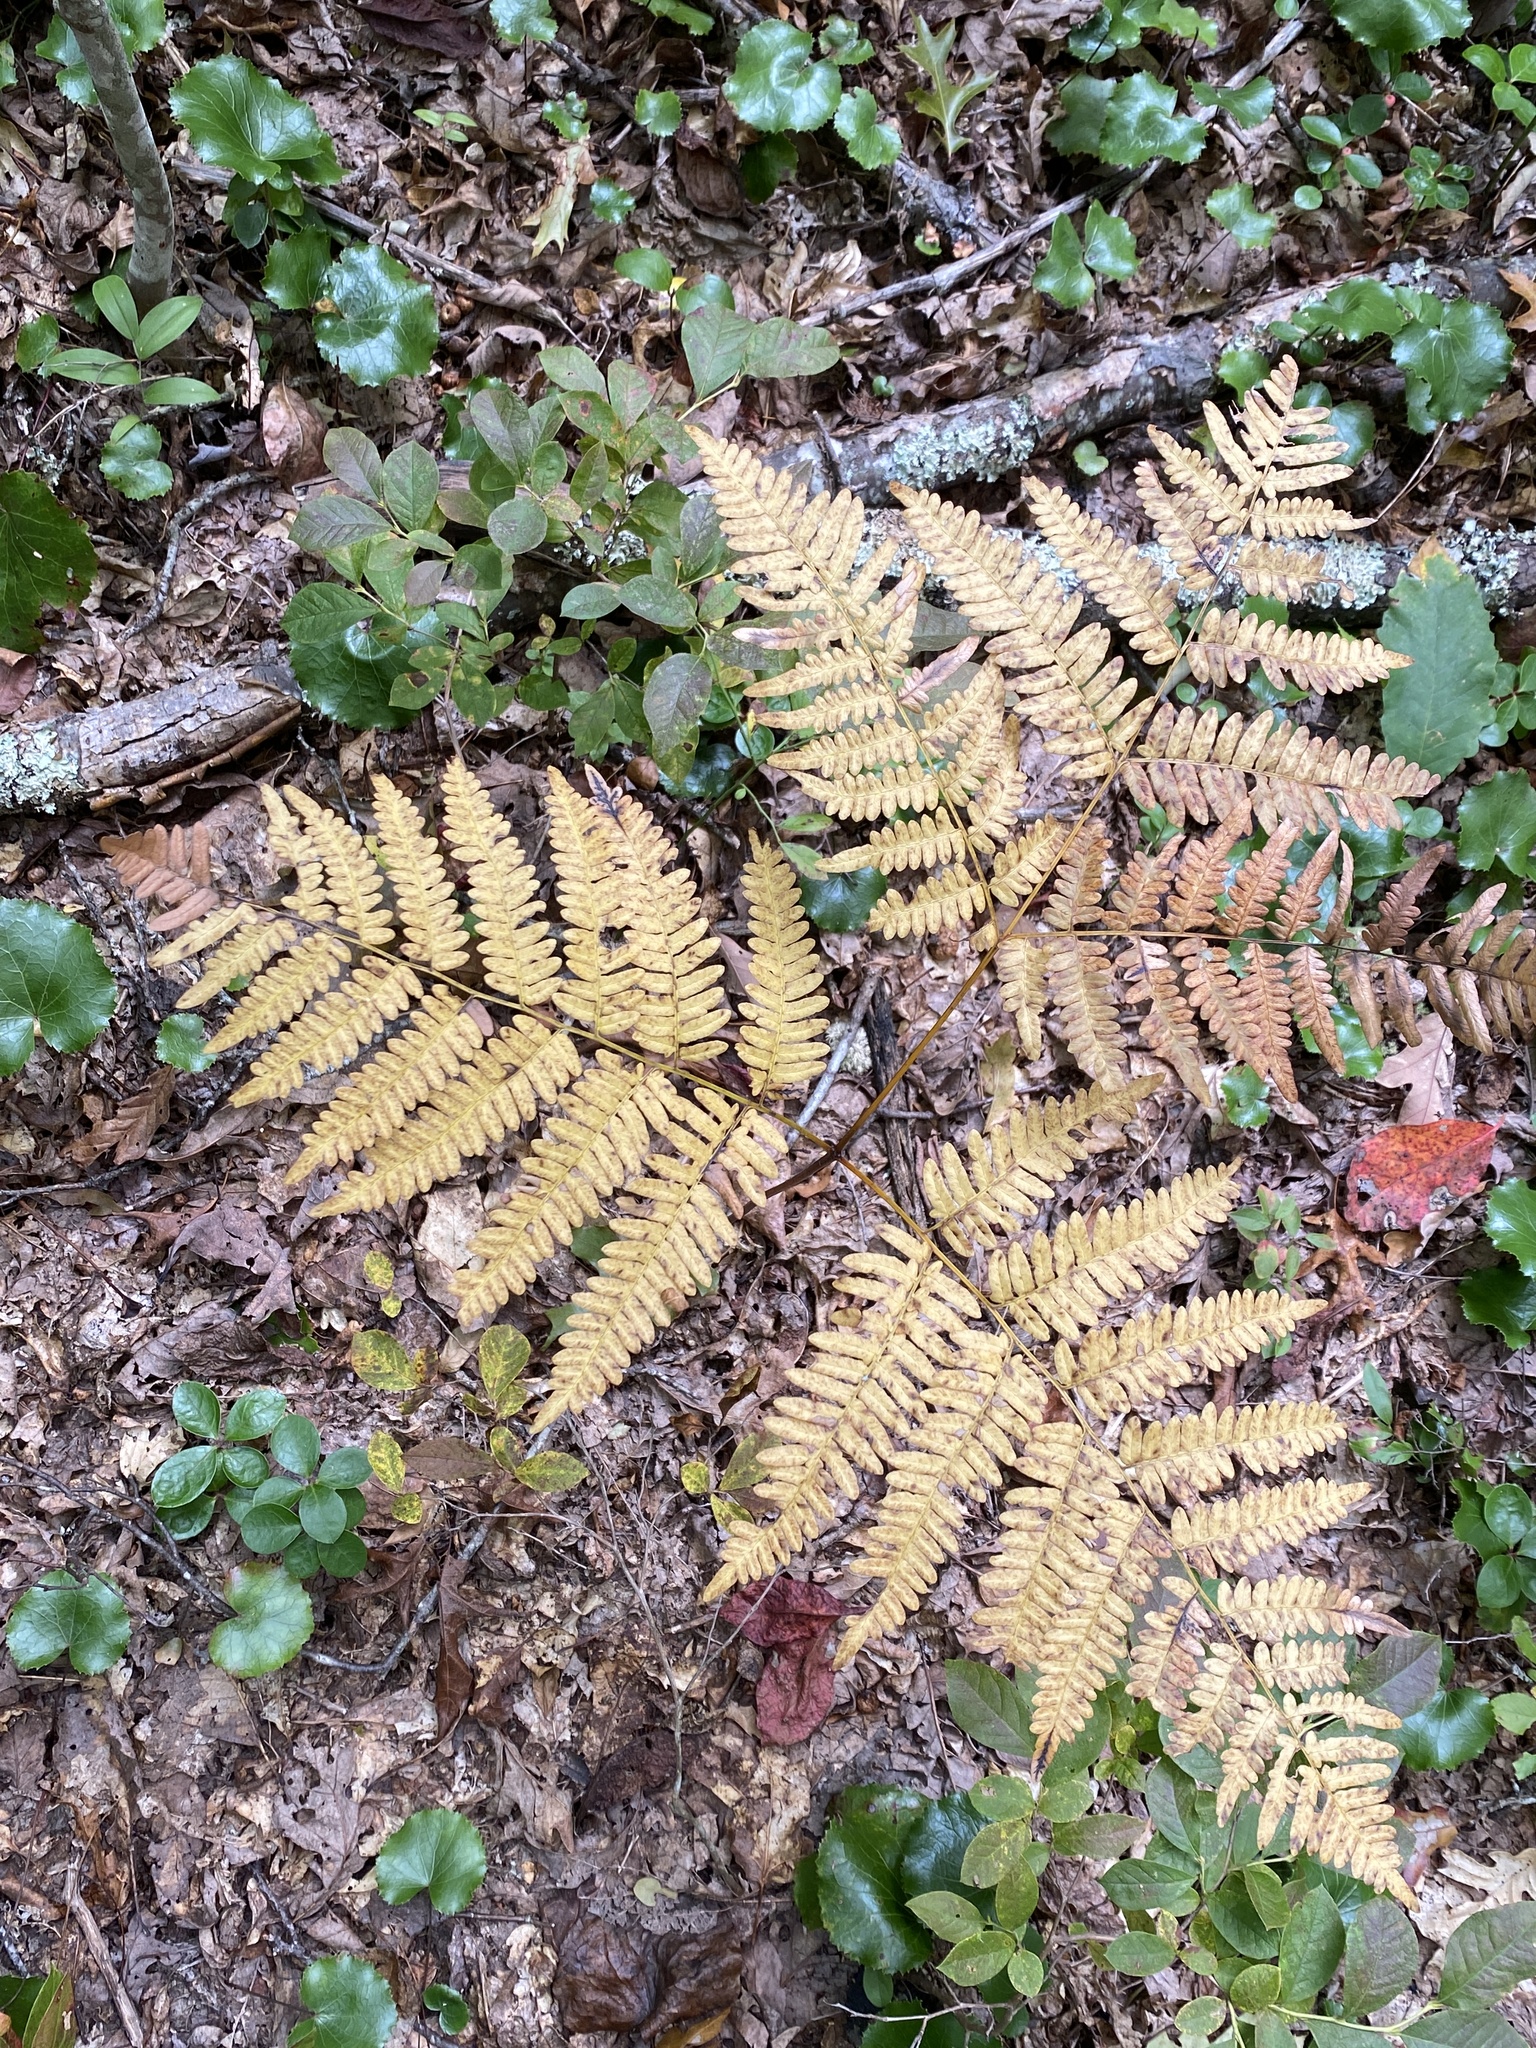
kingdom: Plantae
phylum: Tracheophyta
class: Polypodiopsida
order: Polypodiales
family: Dennstaedtiaceae
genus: Pteridium
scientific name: Pteridium aquilinum
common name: Bracken
